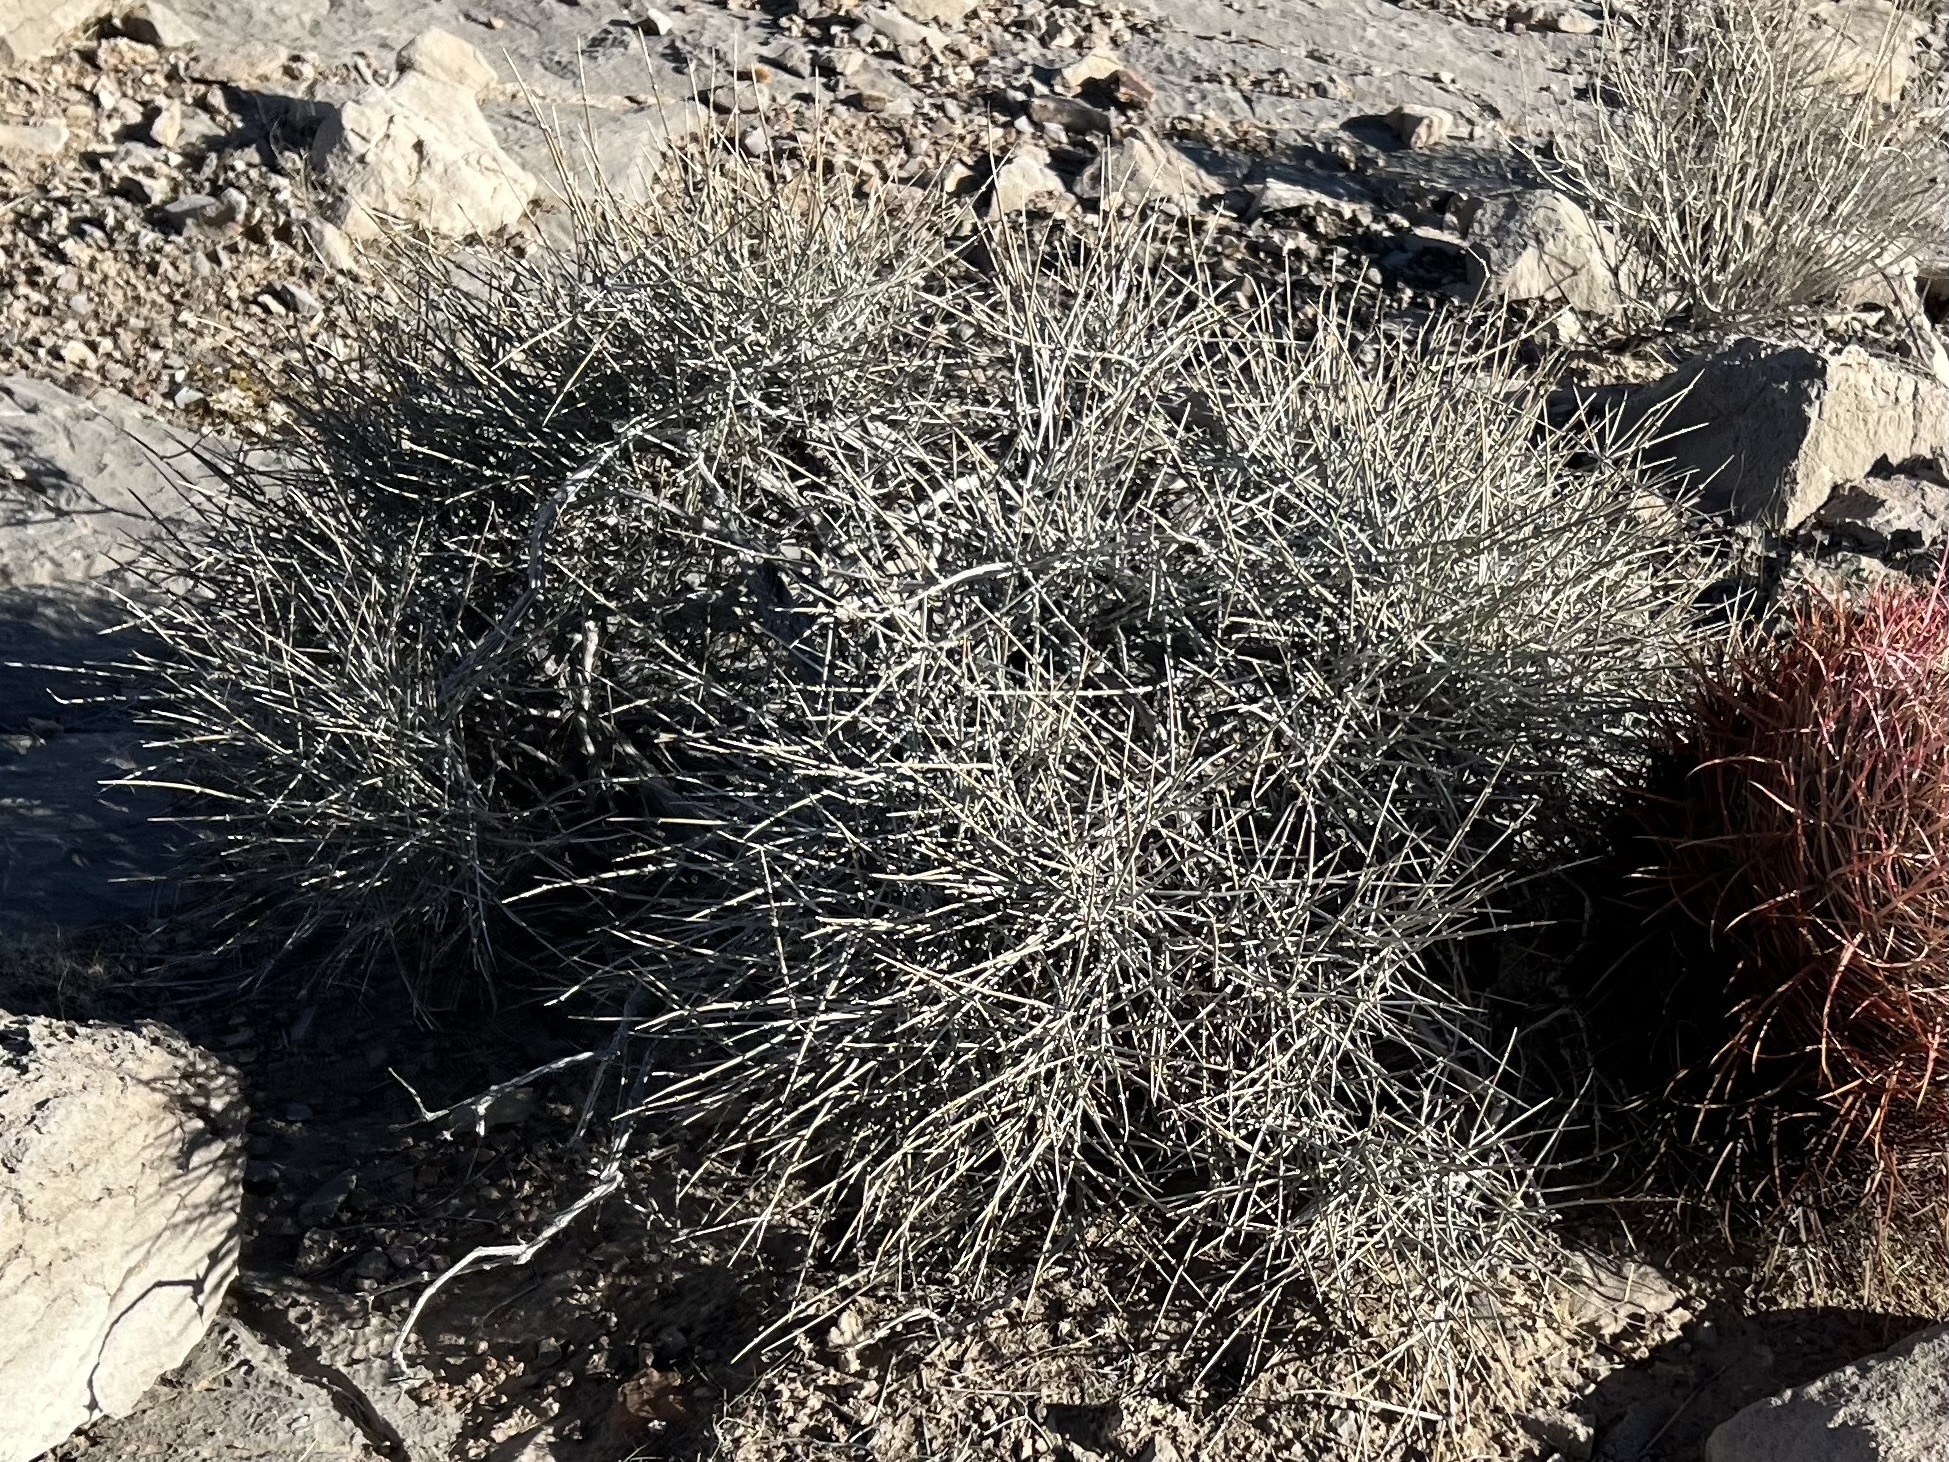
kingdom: Plantae
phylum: Tracheophyta
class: Gnetopsida
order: Ephedrales
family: Ephedraceae
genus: Ephedra
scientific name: Ephedra nevadensis
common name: Gray ephedra
